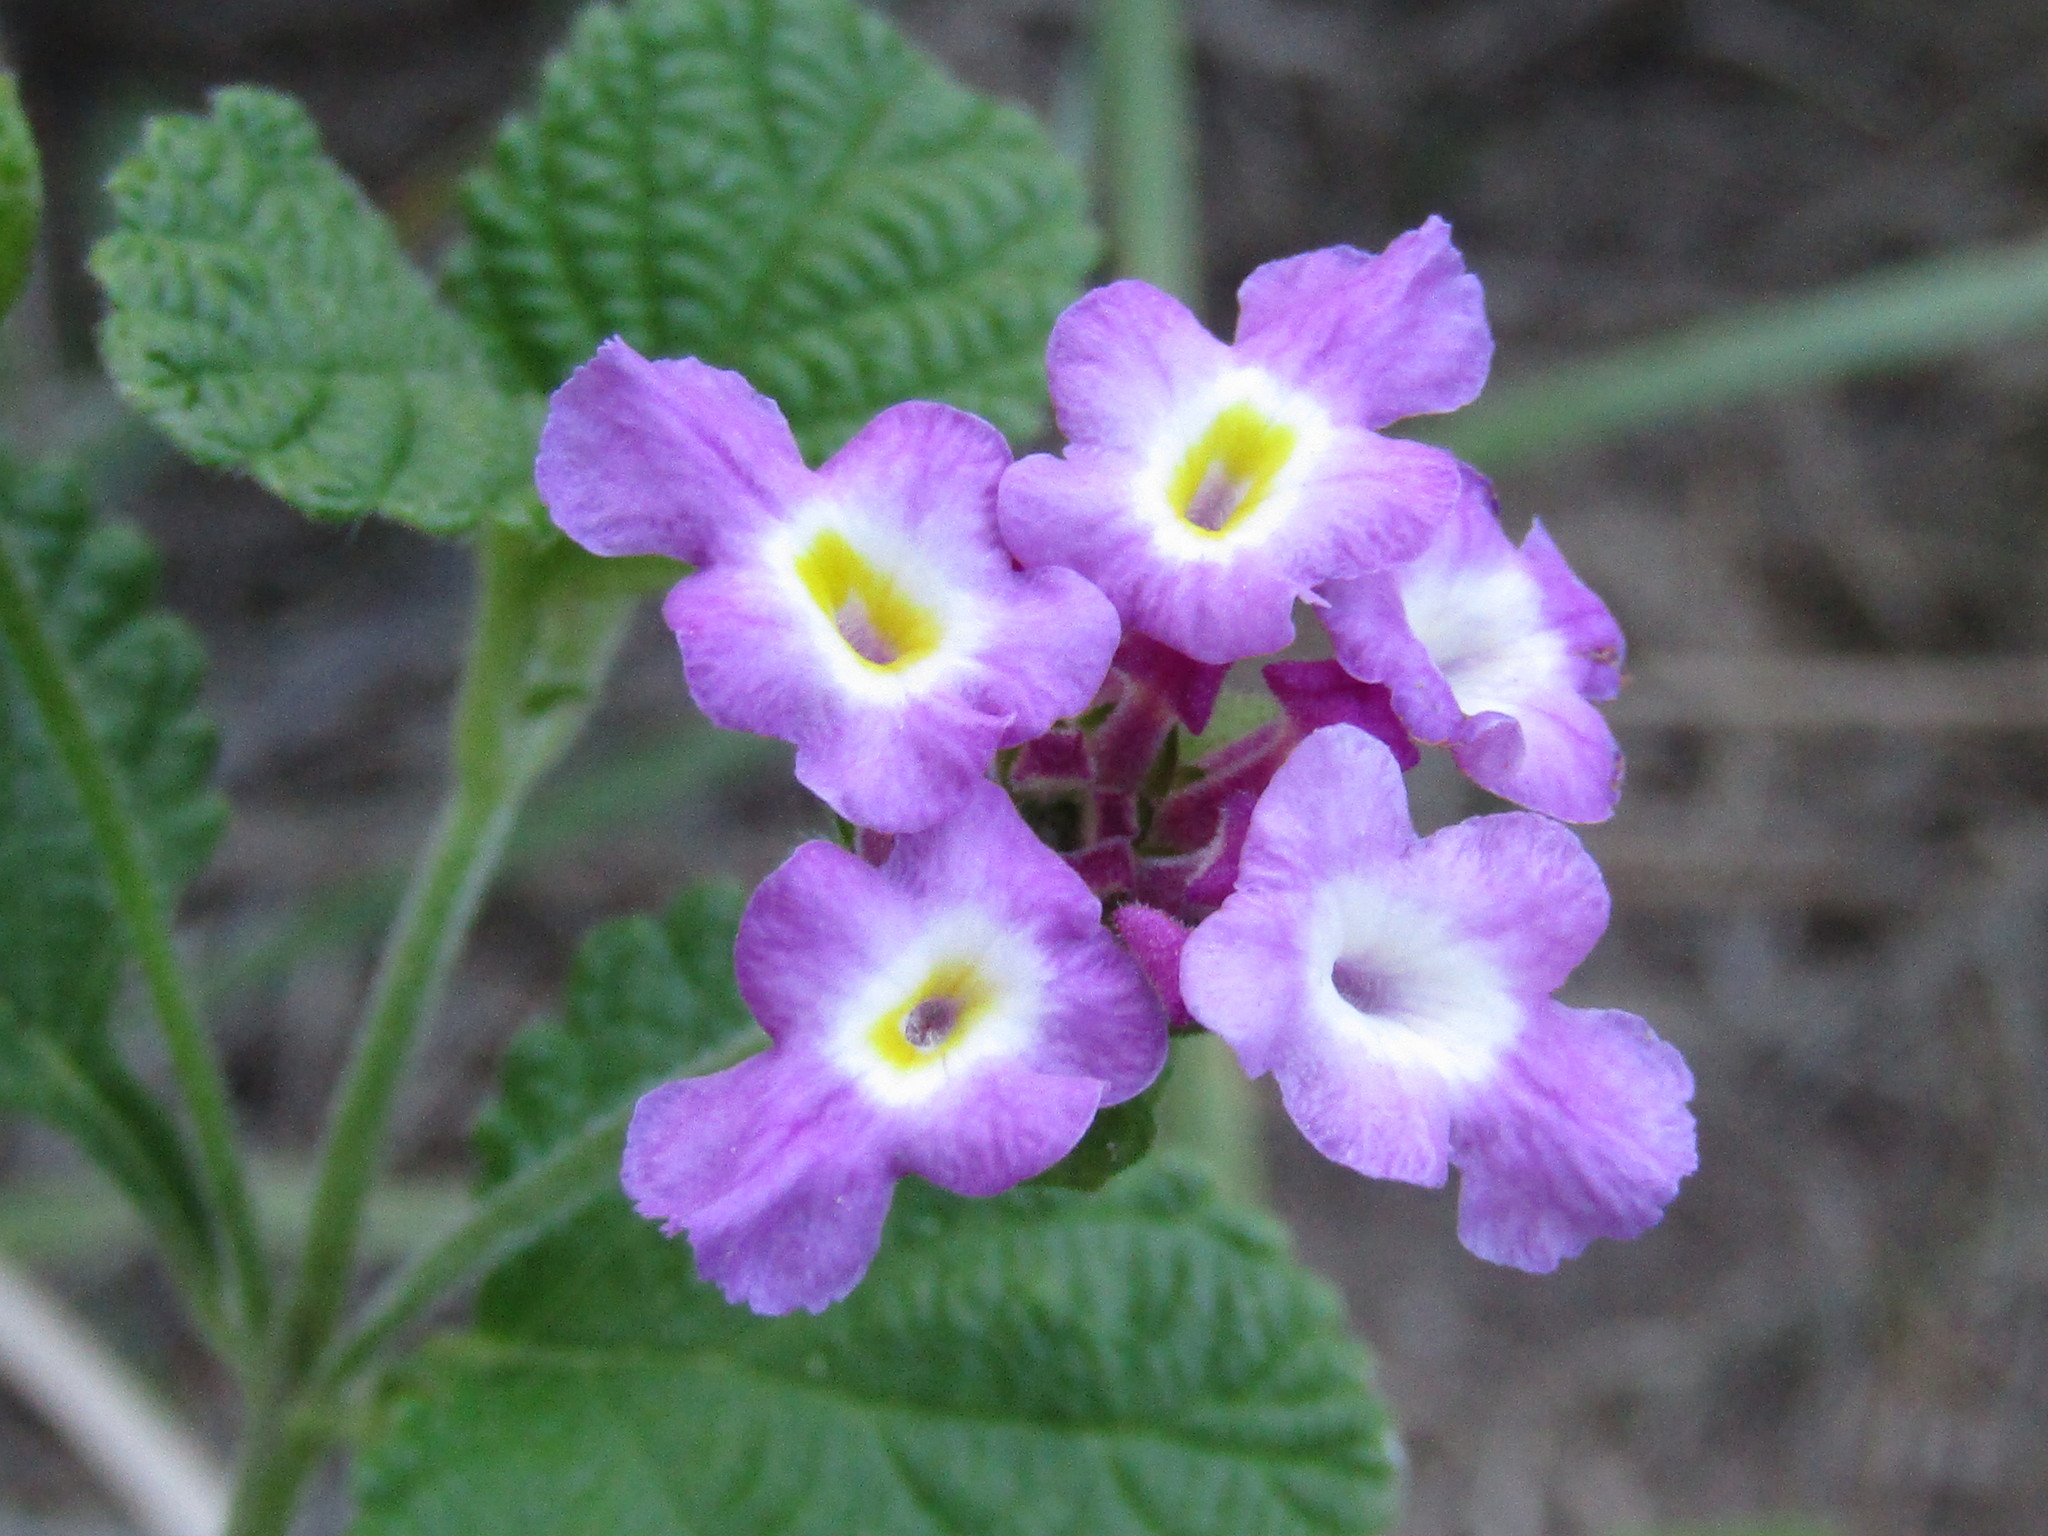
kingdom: Plantae
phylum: Tracheophyta
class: Magnoliopsida
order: Lamiales
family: Verbenaceae
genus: Lantana
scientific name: Lantana megapotamica
